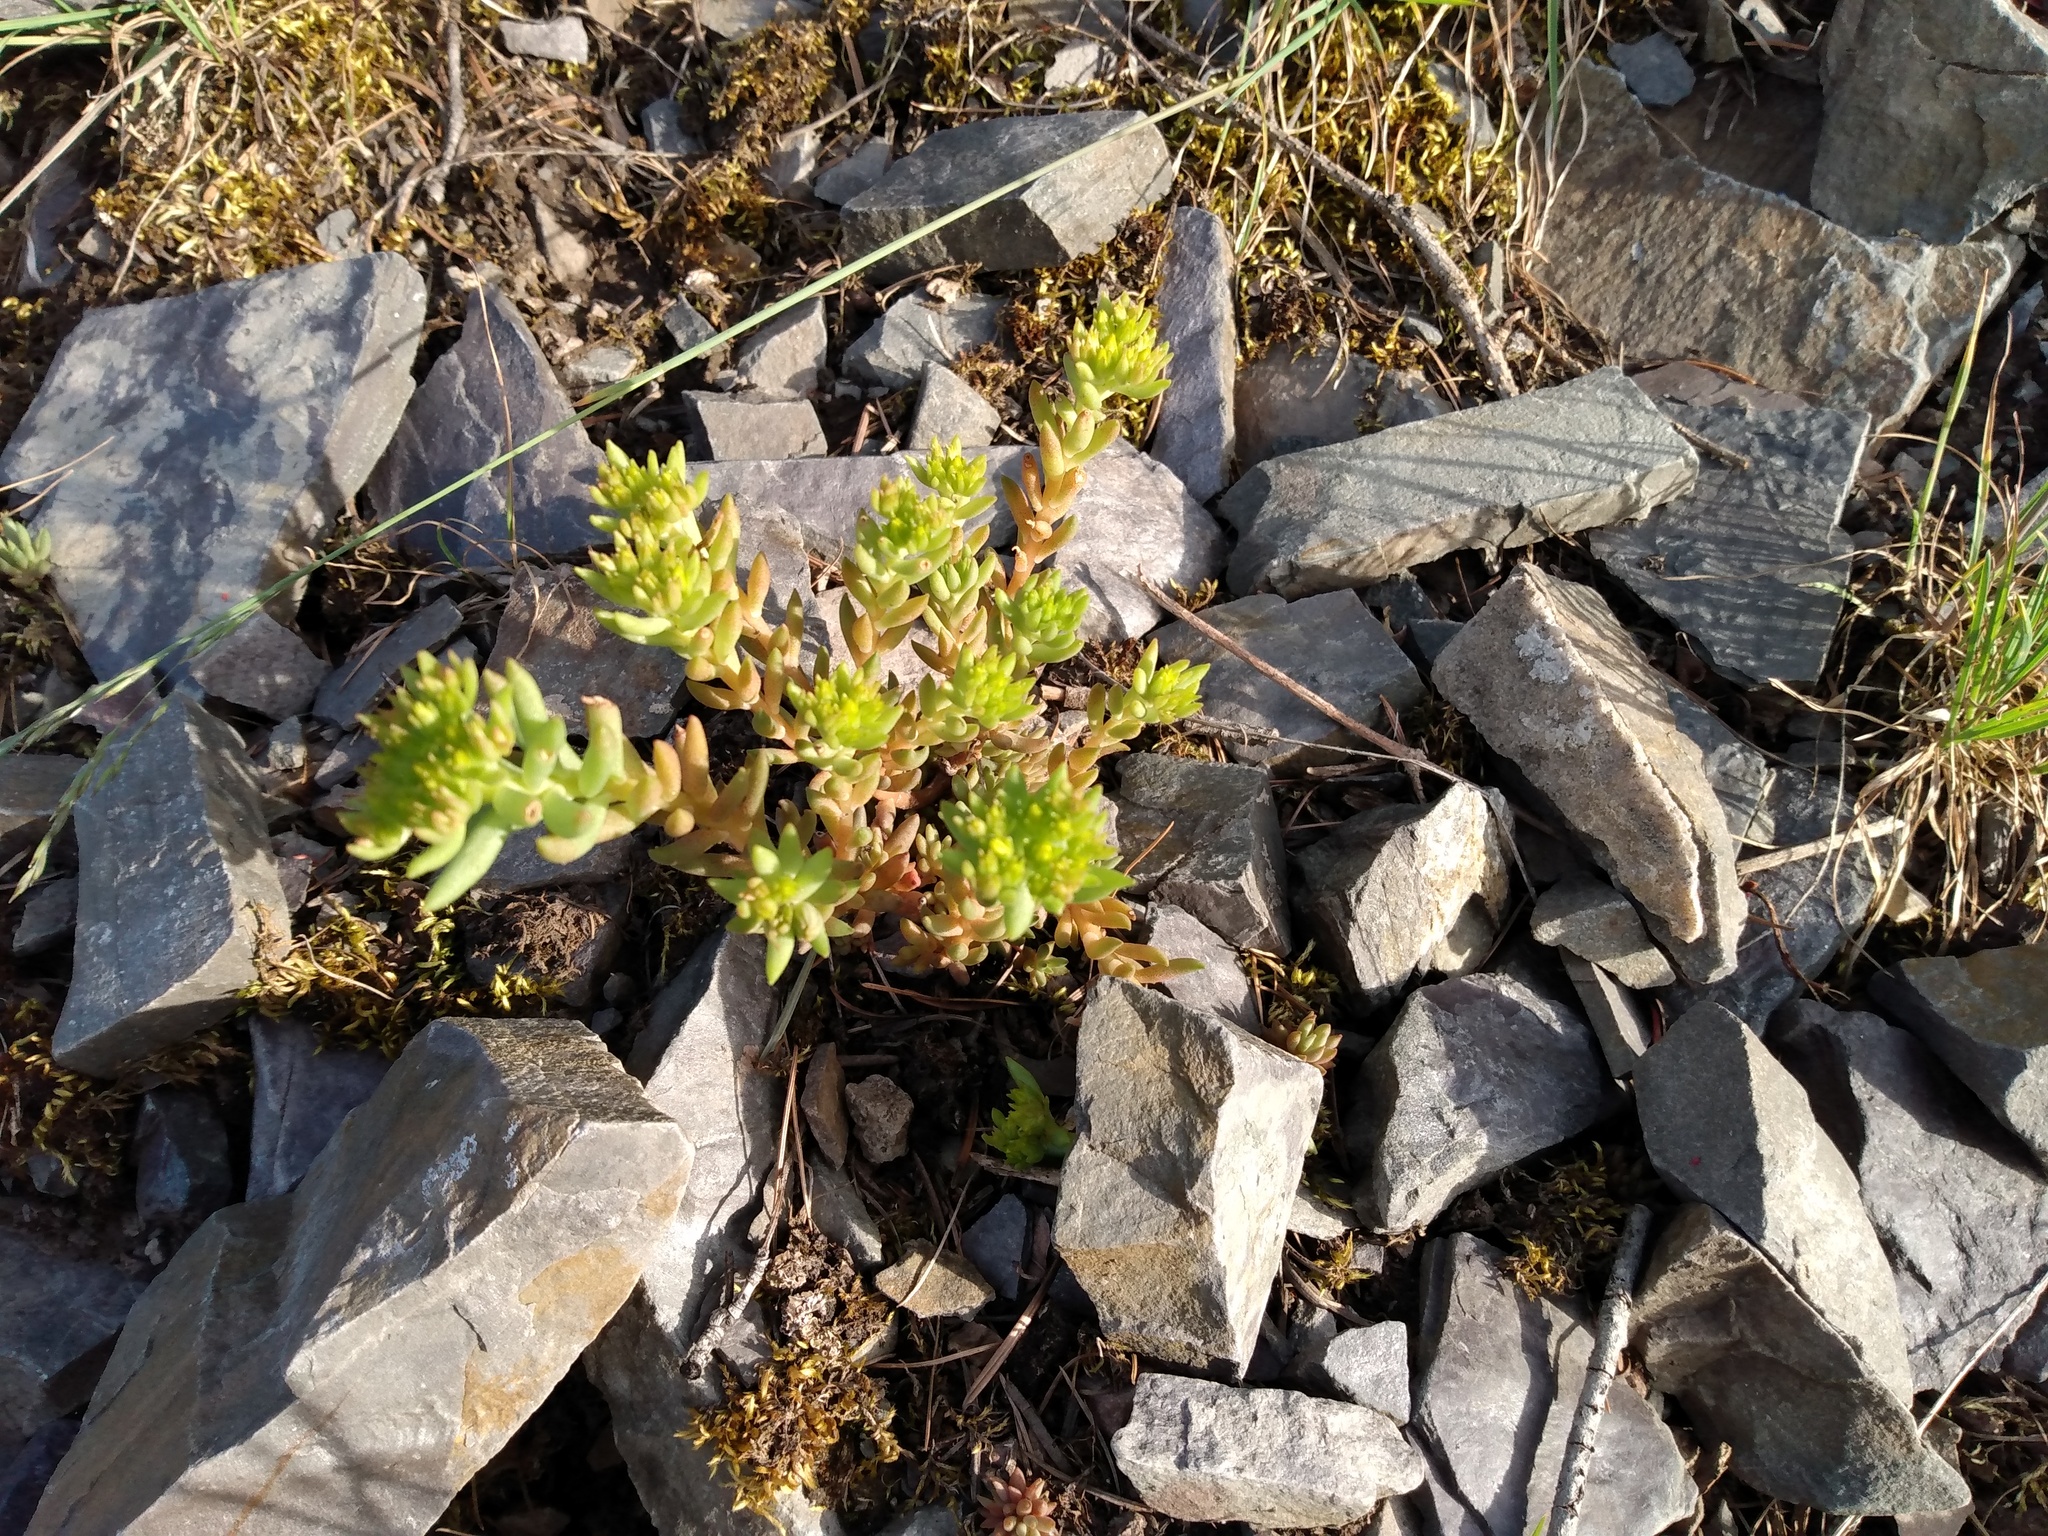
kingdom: Plantae
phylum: Tracheophyta
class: Magnoliopsida
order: Saxifragales
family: Crassulaceae
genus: Sedum
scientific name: Sedum lanceolatum
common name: Common stonecrop
